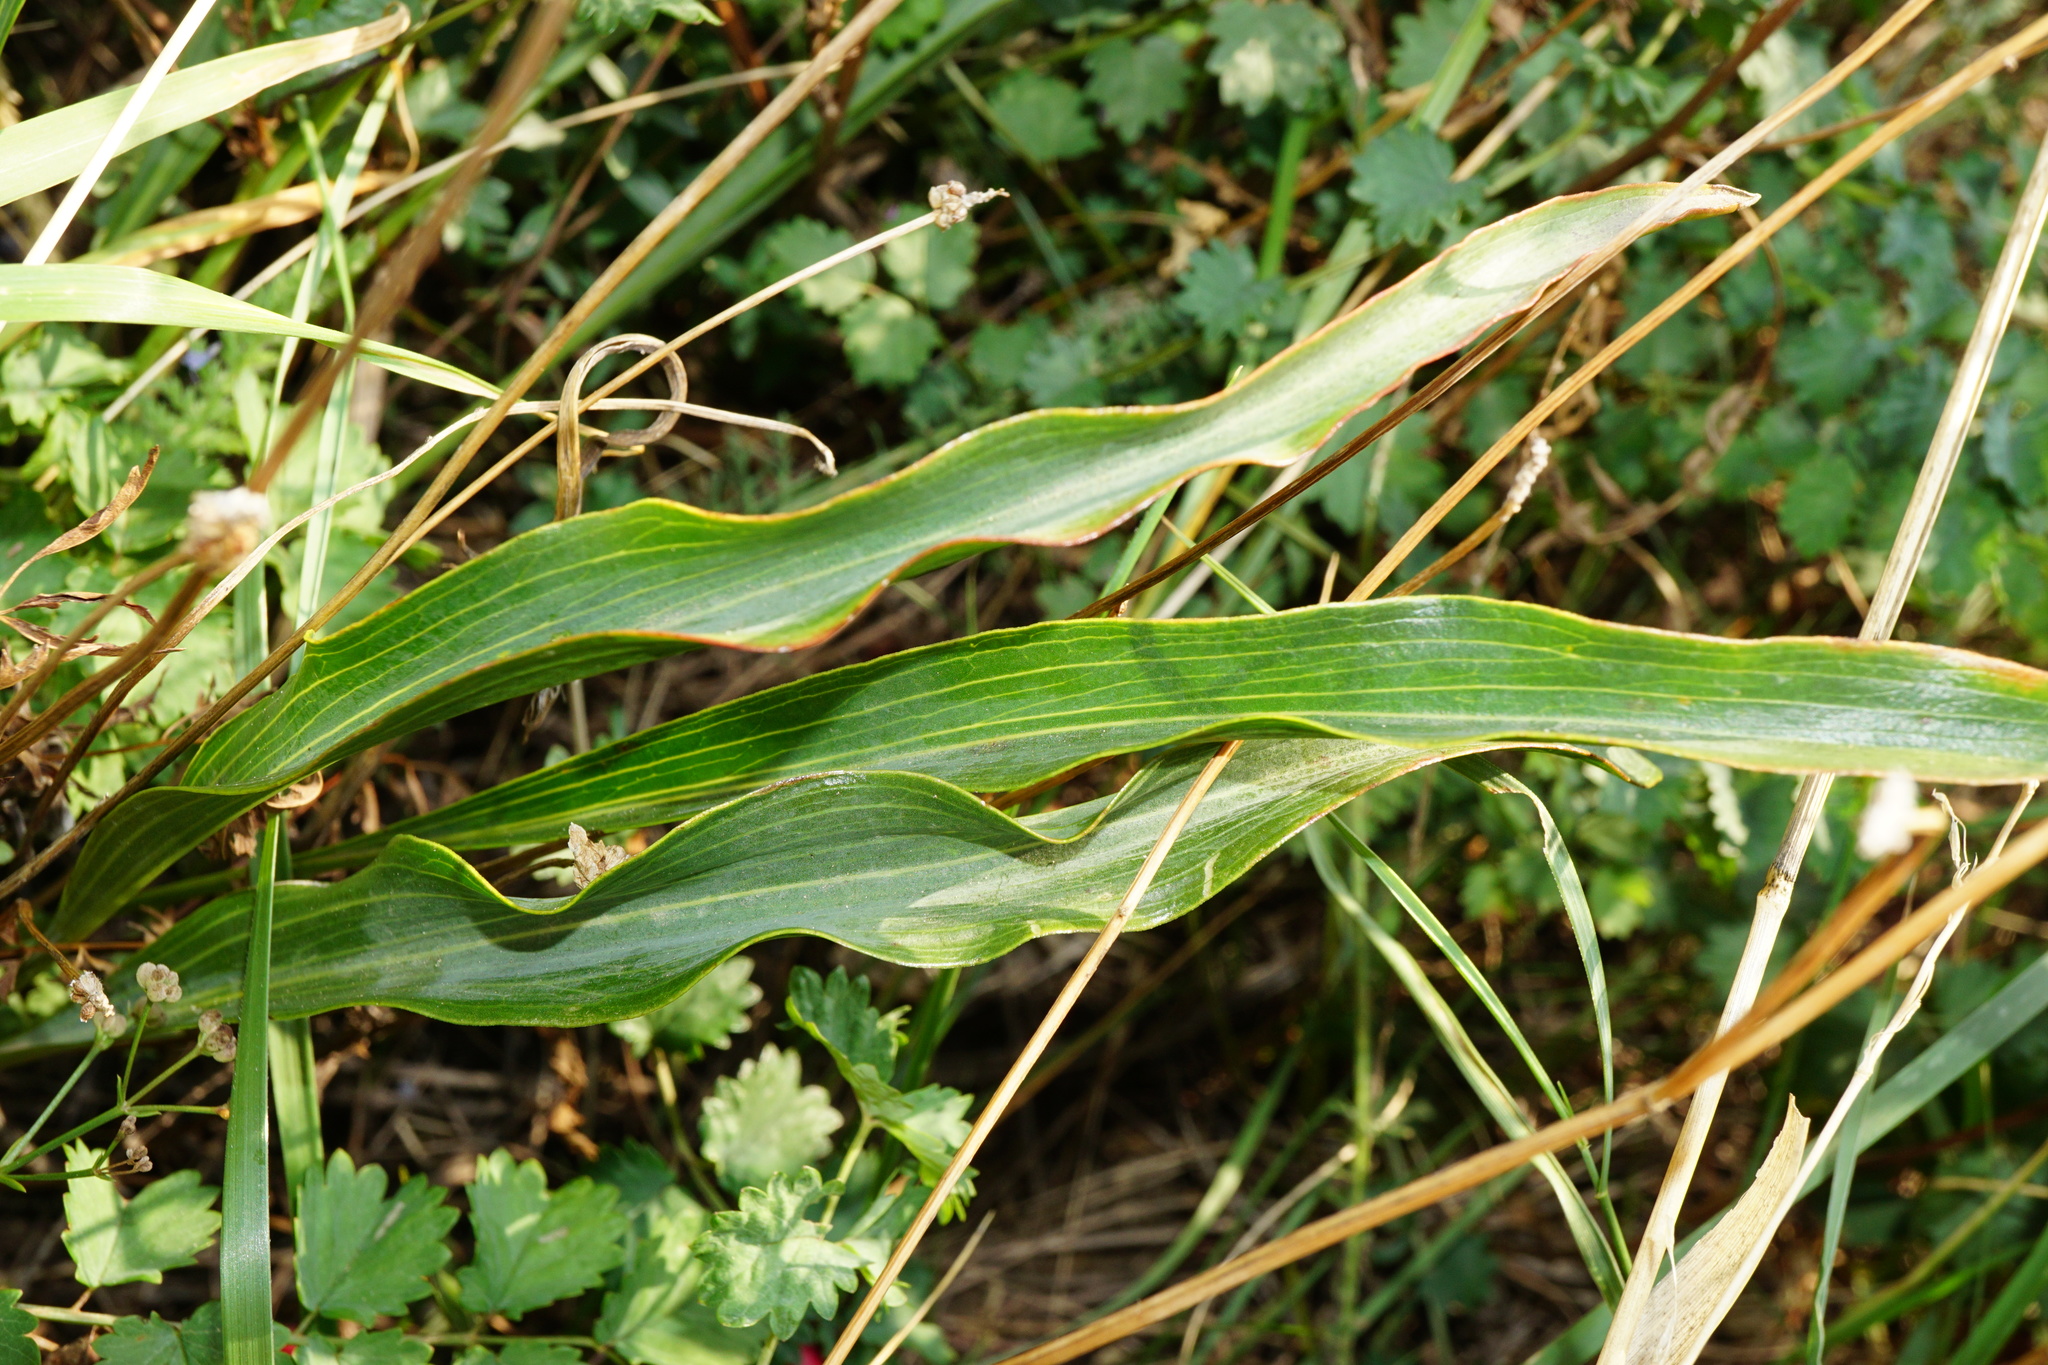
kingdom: Plantae
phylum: Tracheophyta
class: Magnoliopsida
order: Asterales
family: Asteraceae
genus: Takhtajaniantha
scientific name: Takhtajaniantha austriaca
